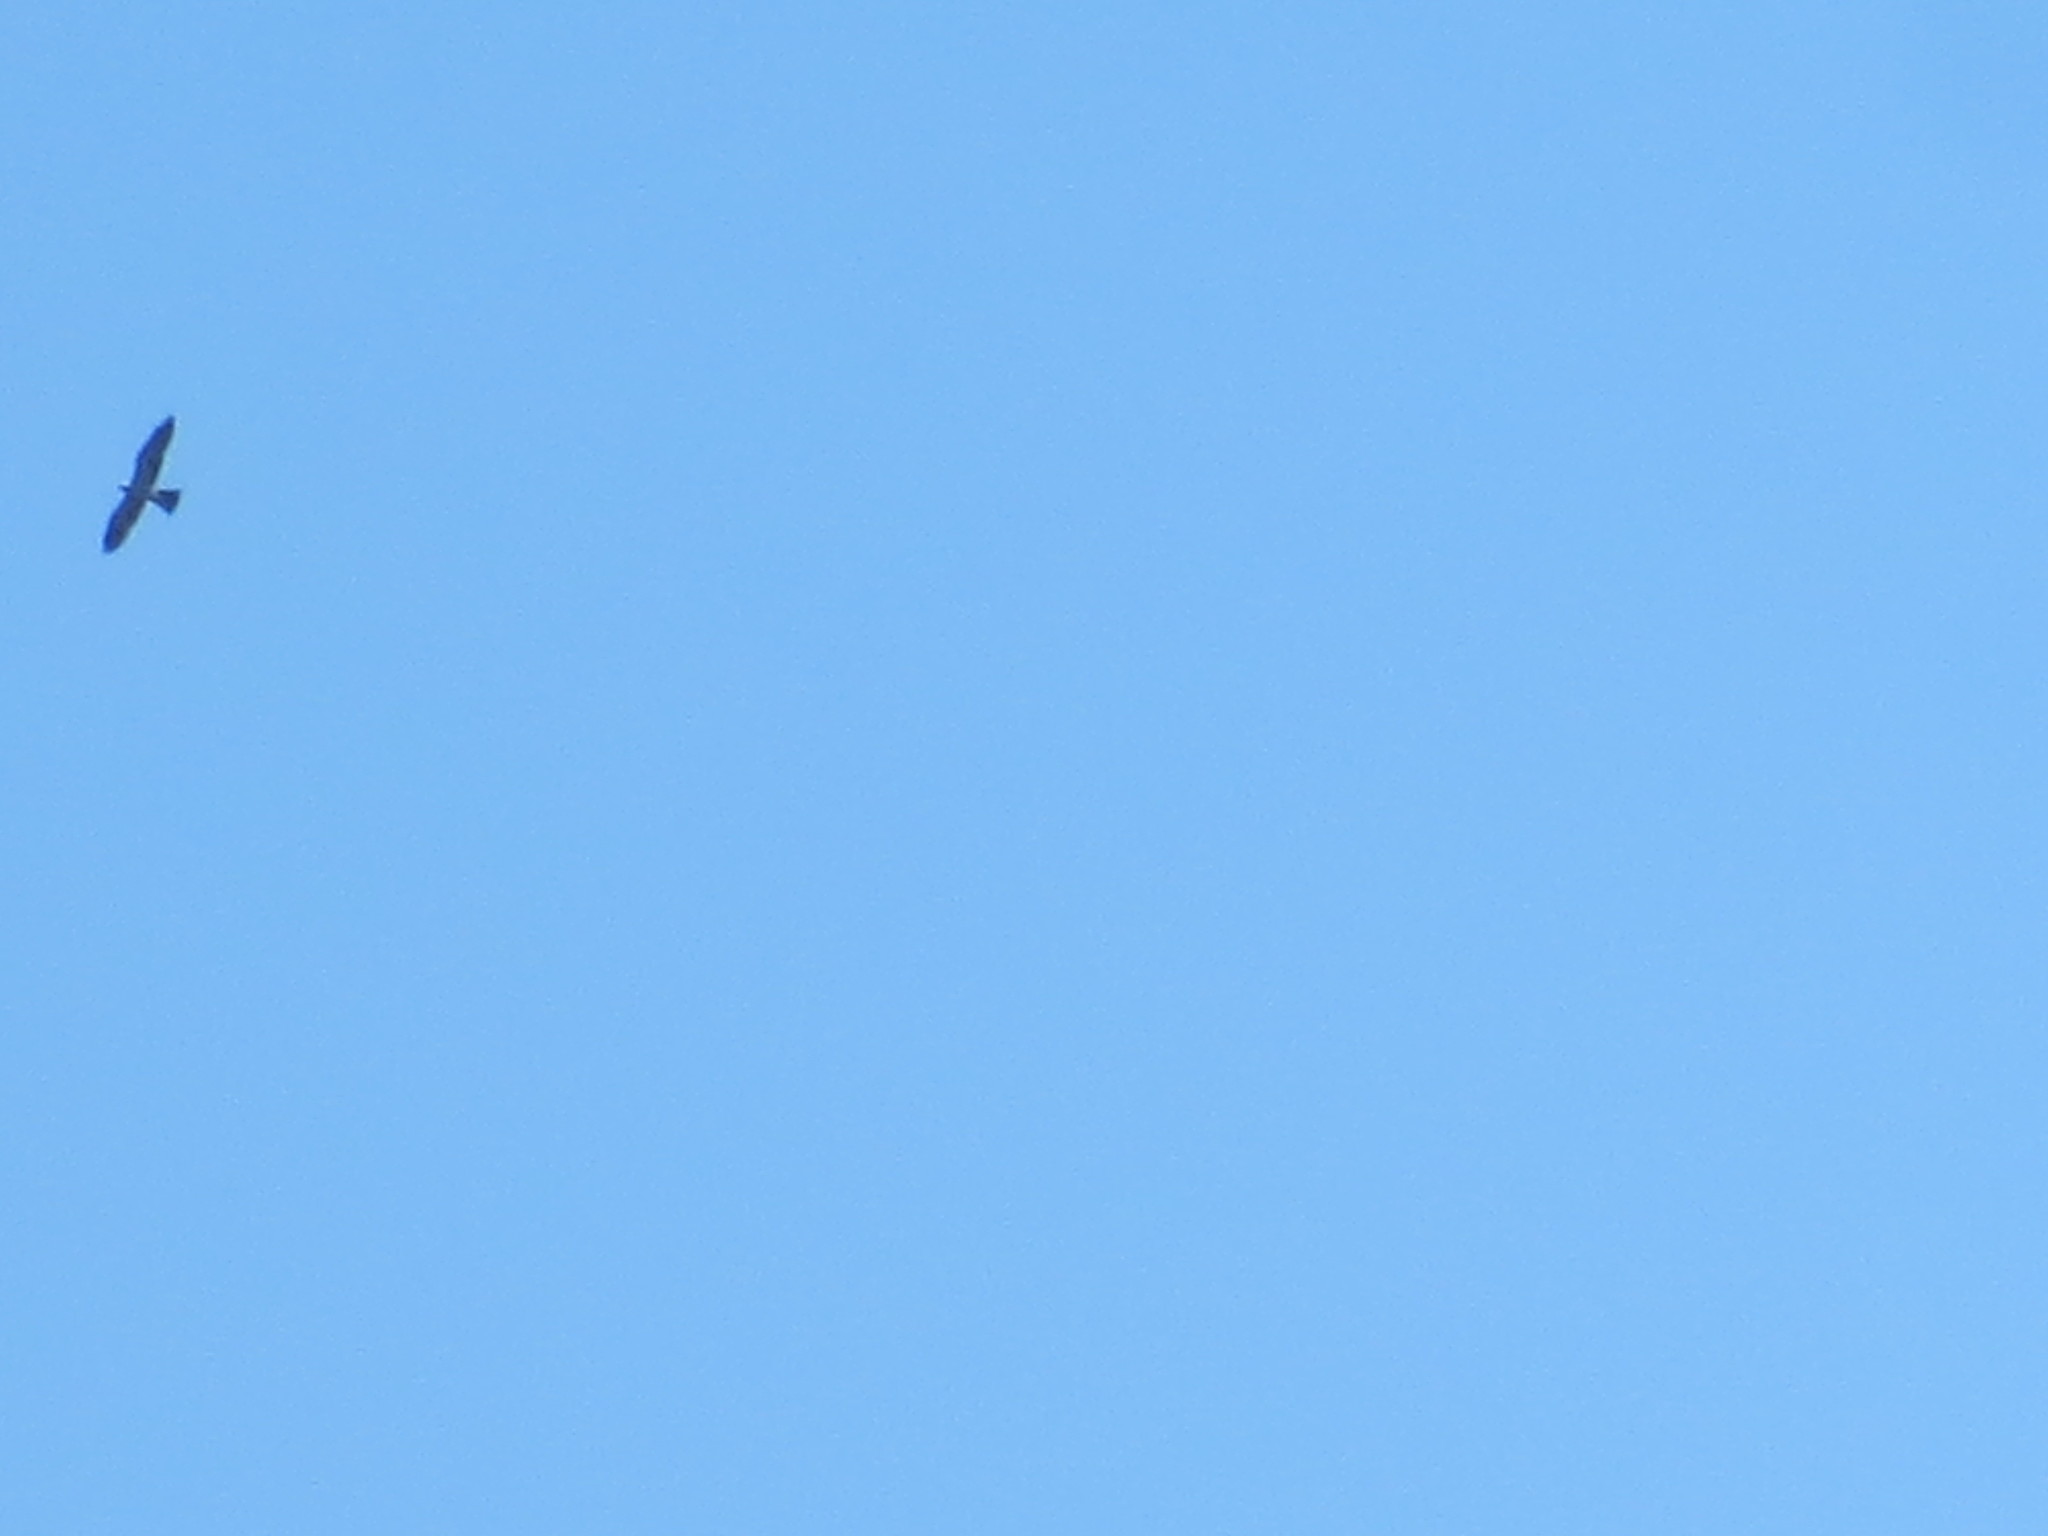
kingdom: Animalia
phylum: Chordata
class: Aves
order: Accipitriformes
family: Accipitridae
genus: Ictinia
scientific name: Ictinia mississippiensis
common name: Mississippi kite
